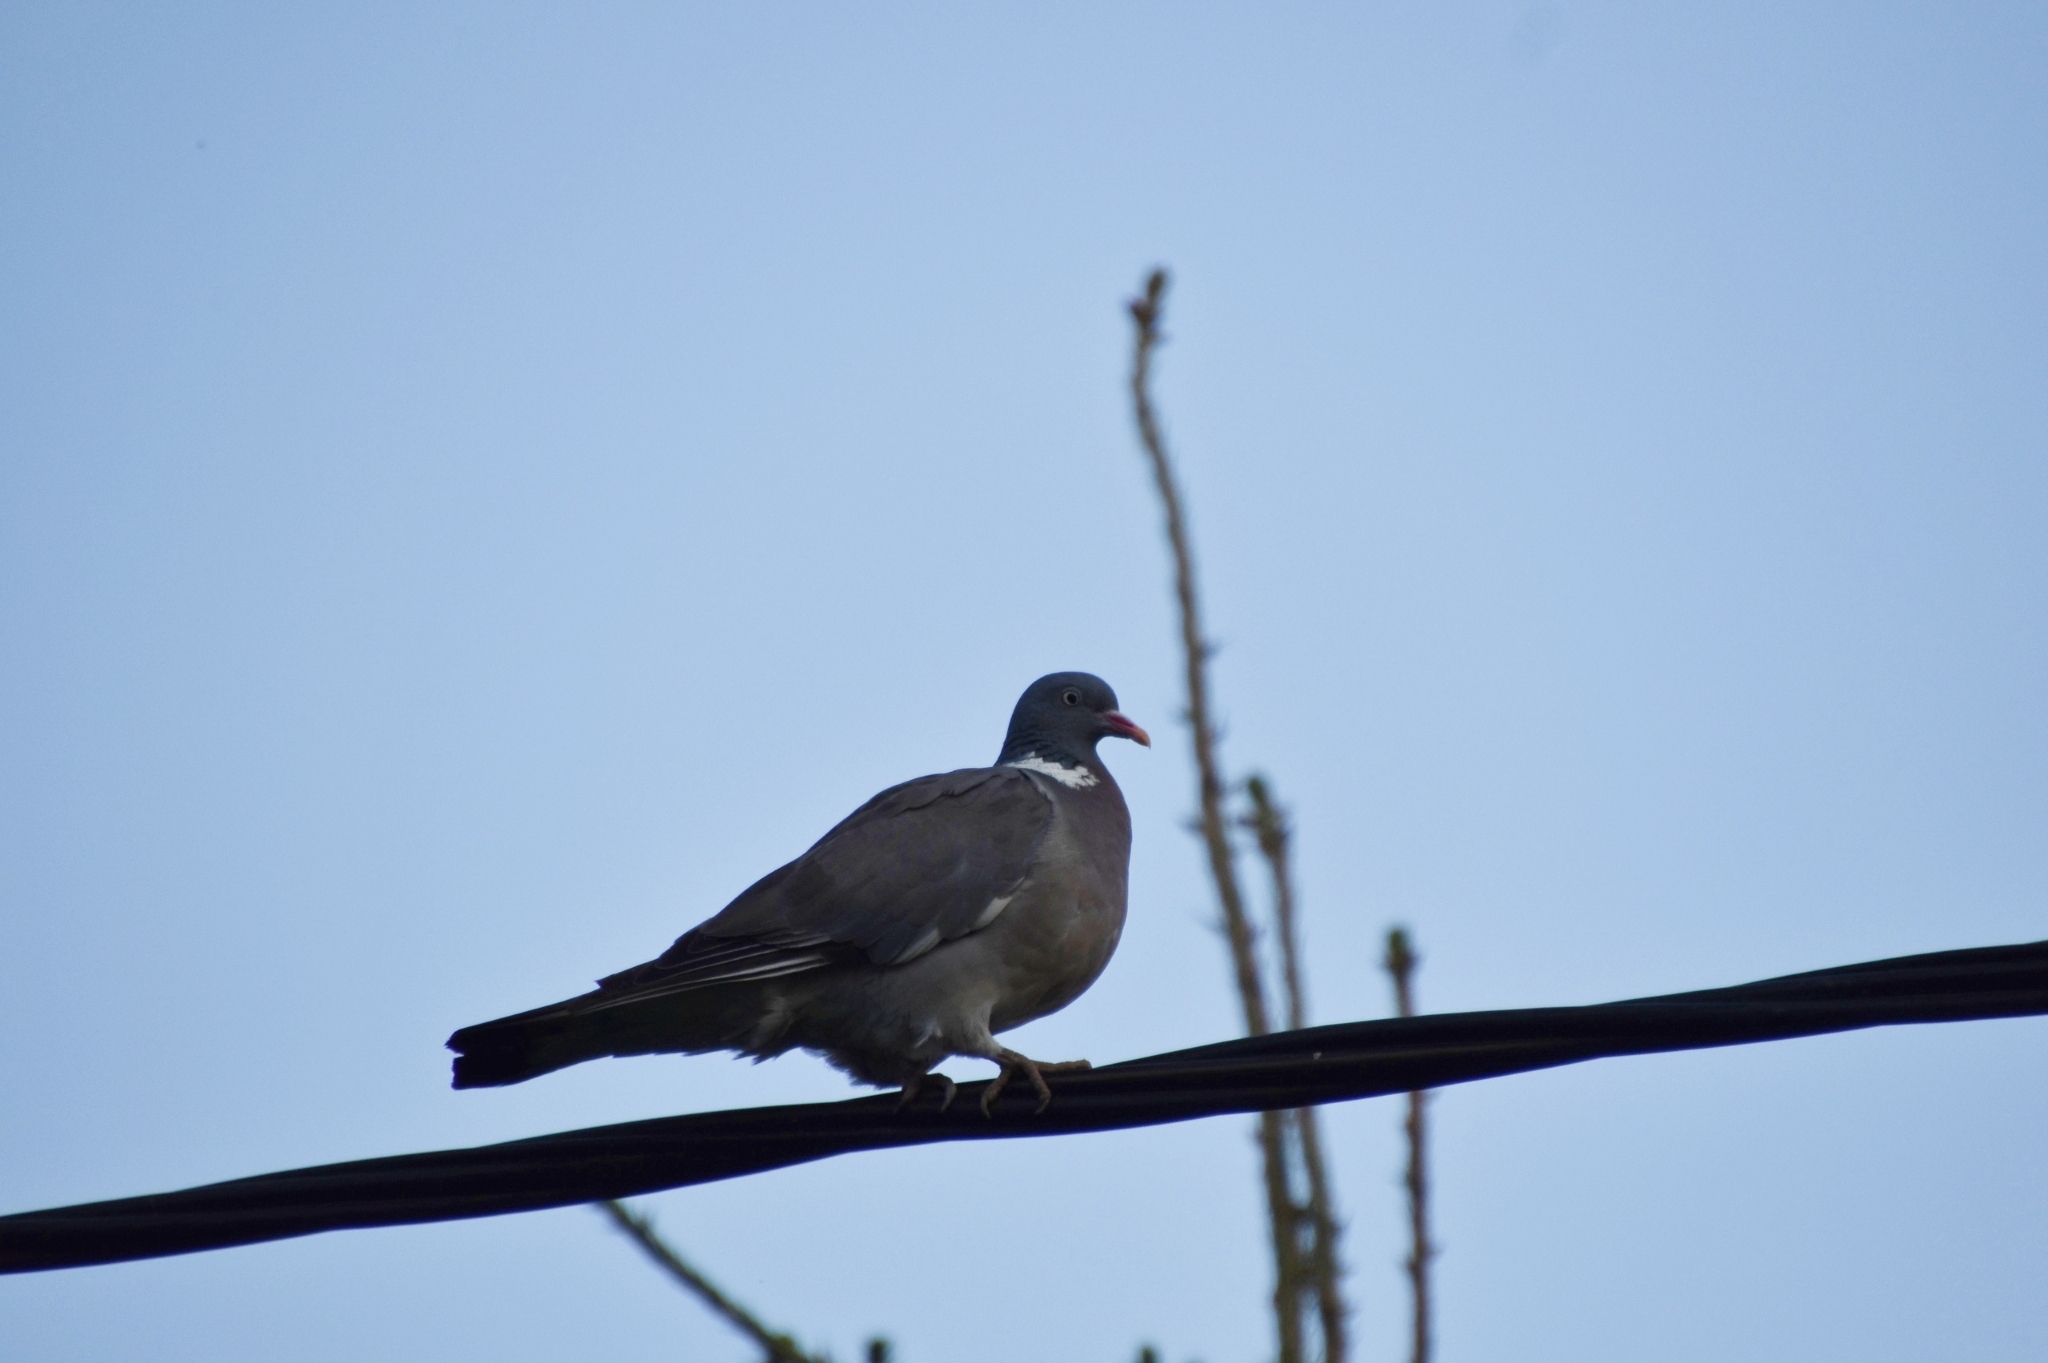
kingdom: Animalia
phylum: Chordata
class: Aves
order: Columbiformes
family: Columbidae
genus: Columba
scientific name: Columba palumbus
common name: Common wood pigeon
